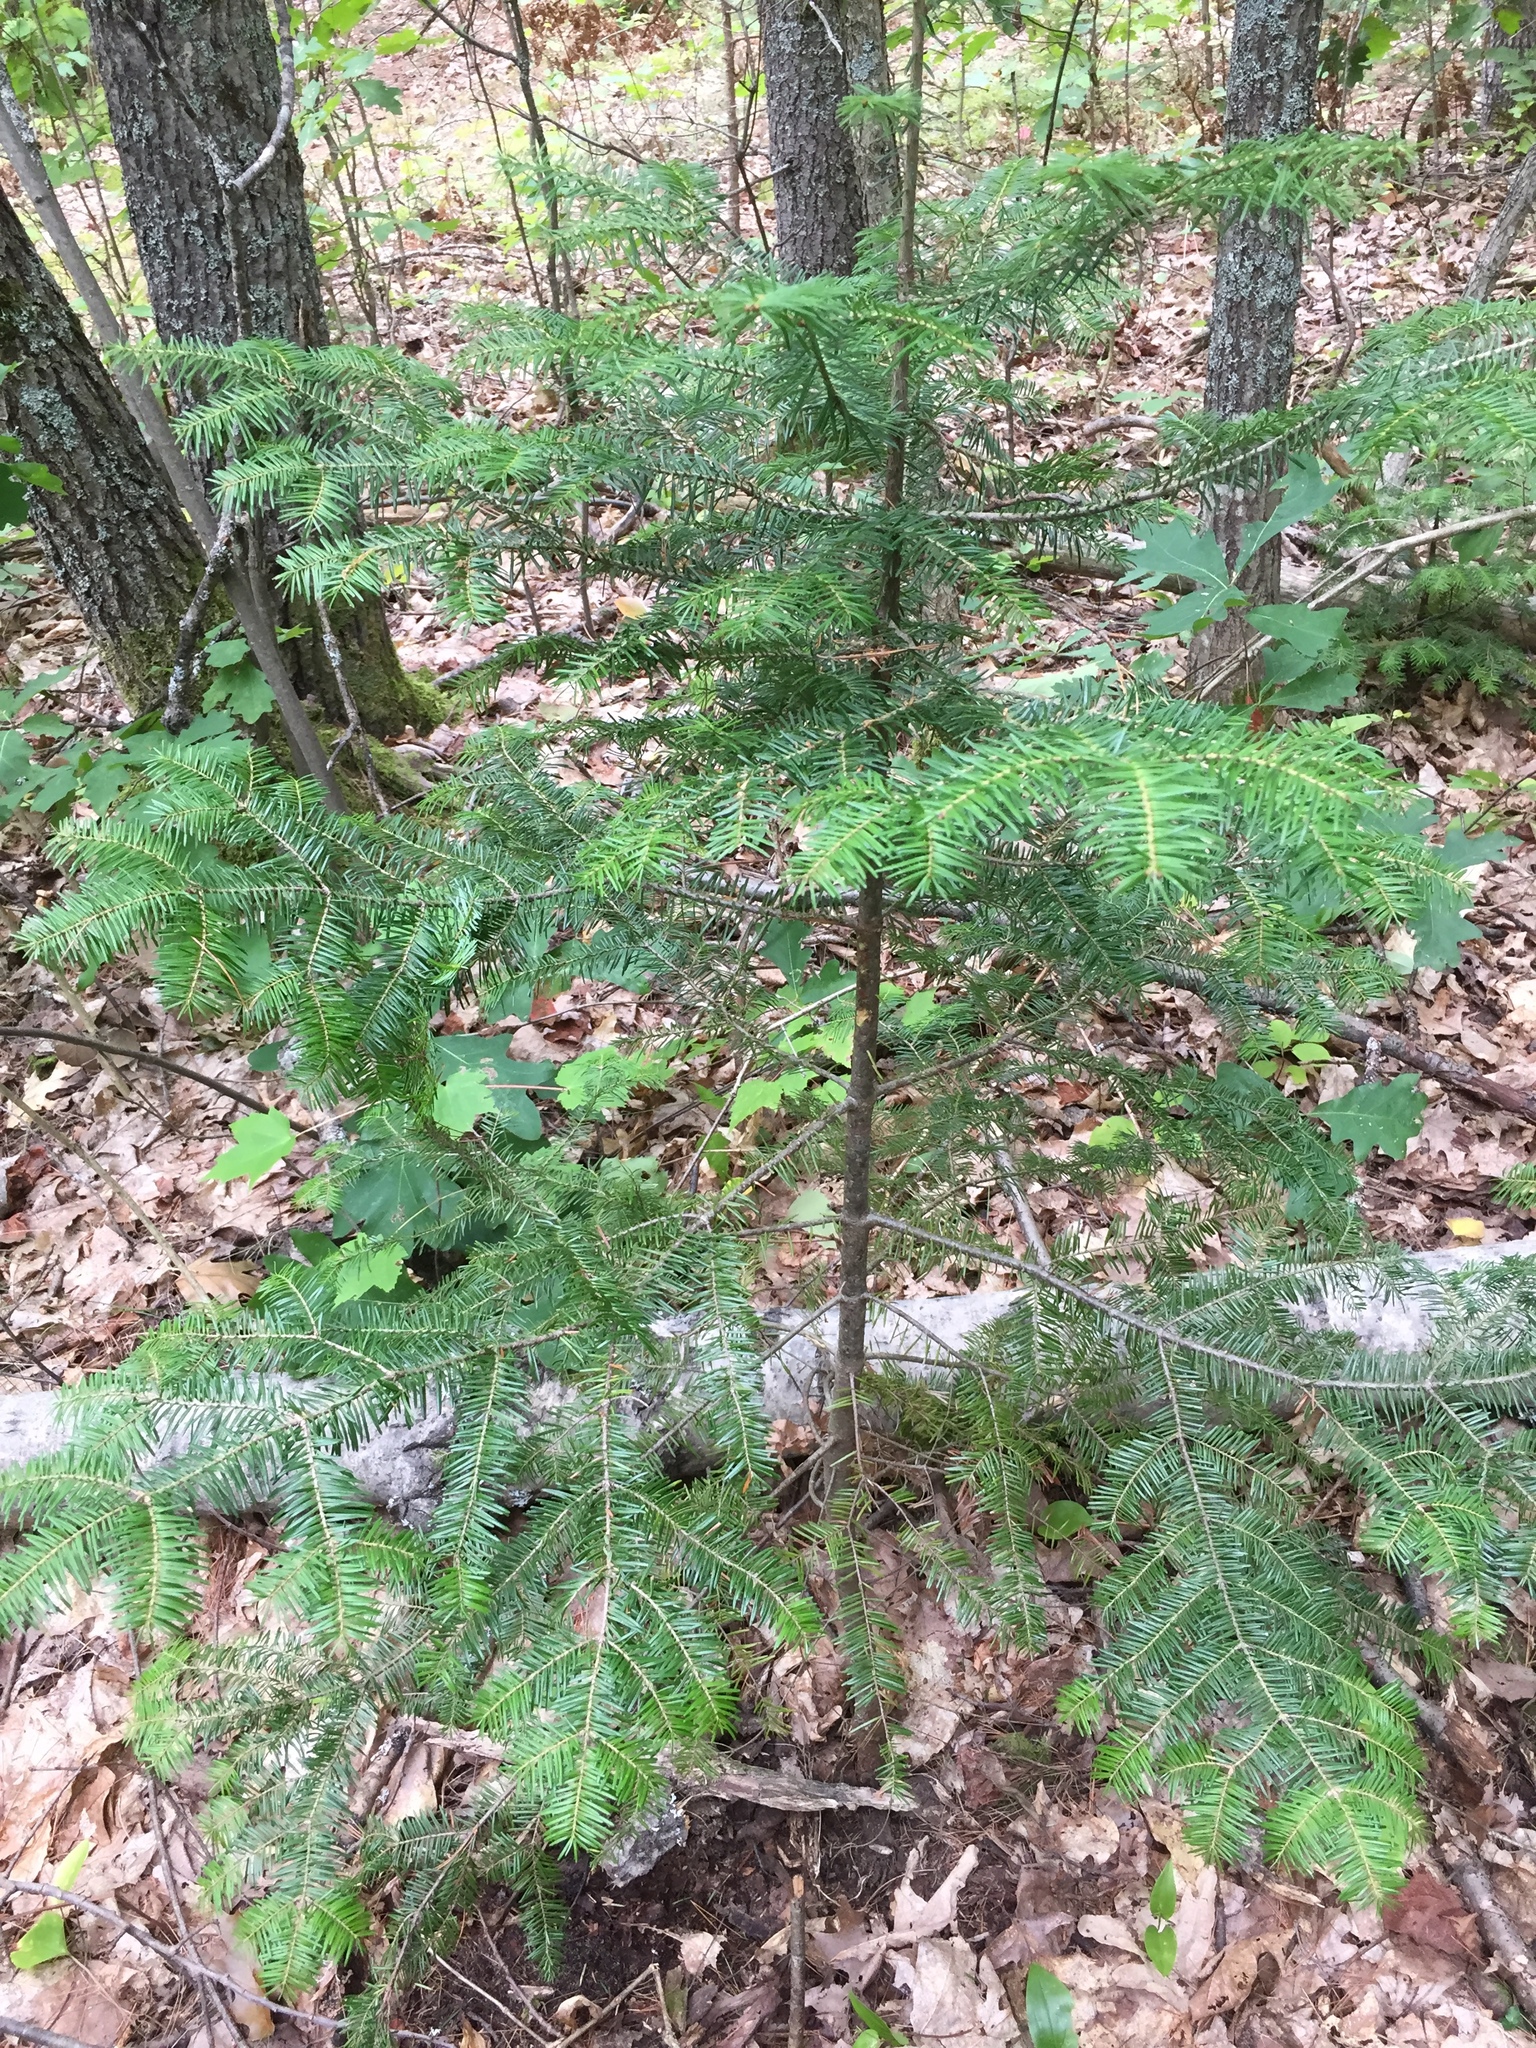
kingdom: Plantae
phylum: Tracheophyta
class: Pinopsida
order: Pinales
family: Pinaceae
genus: Abies
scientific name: Abies balsamea
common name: Balsam fir
